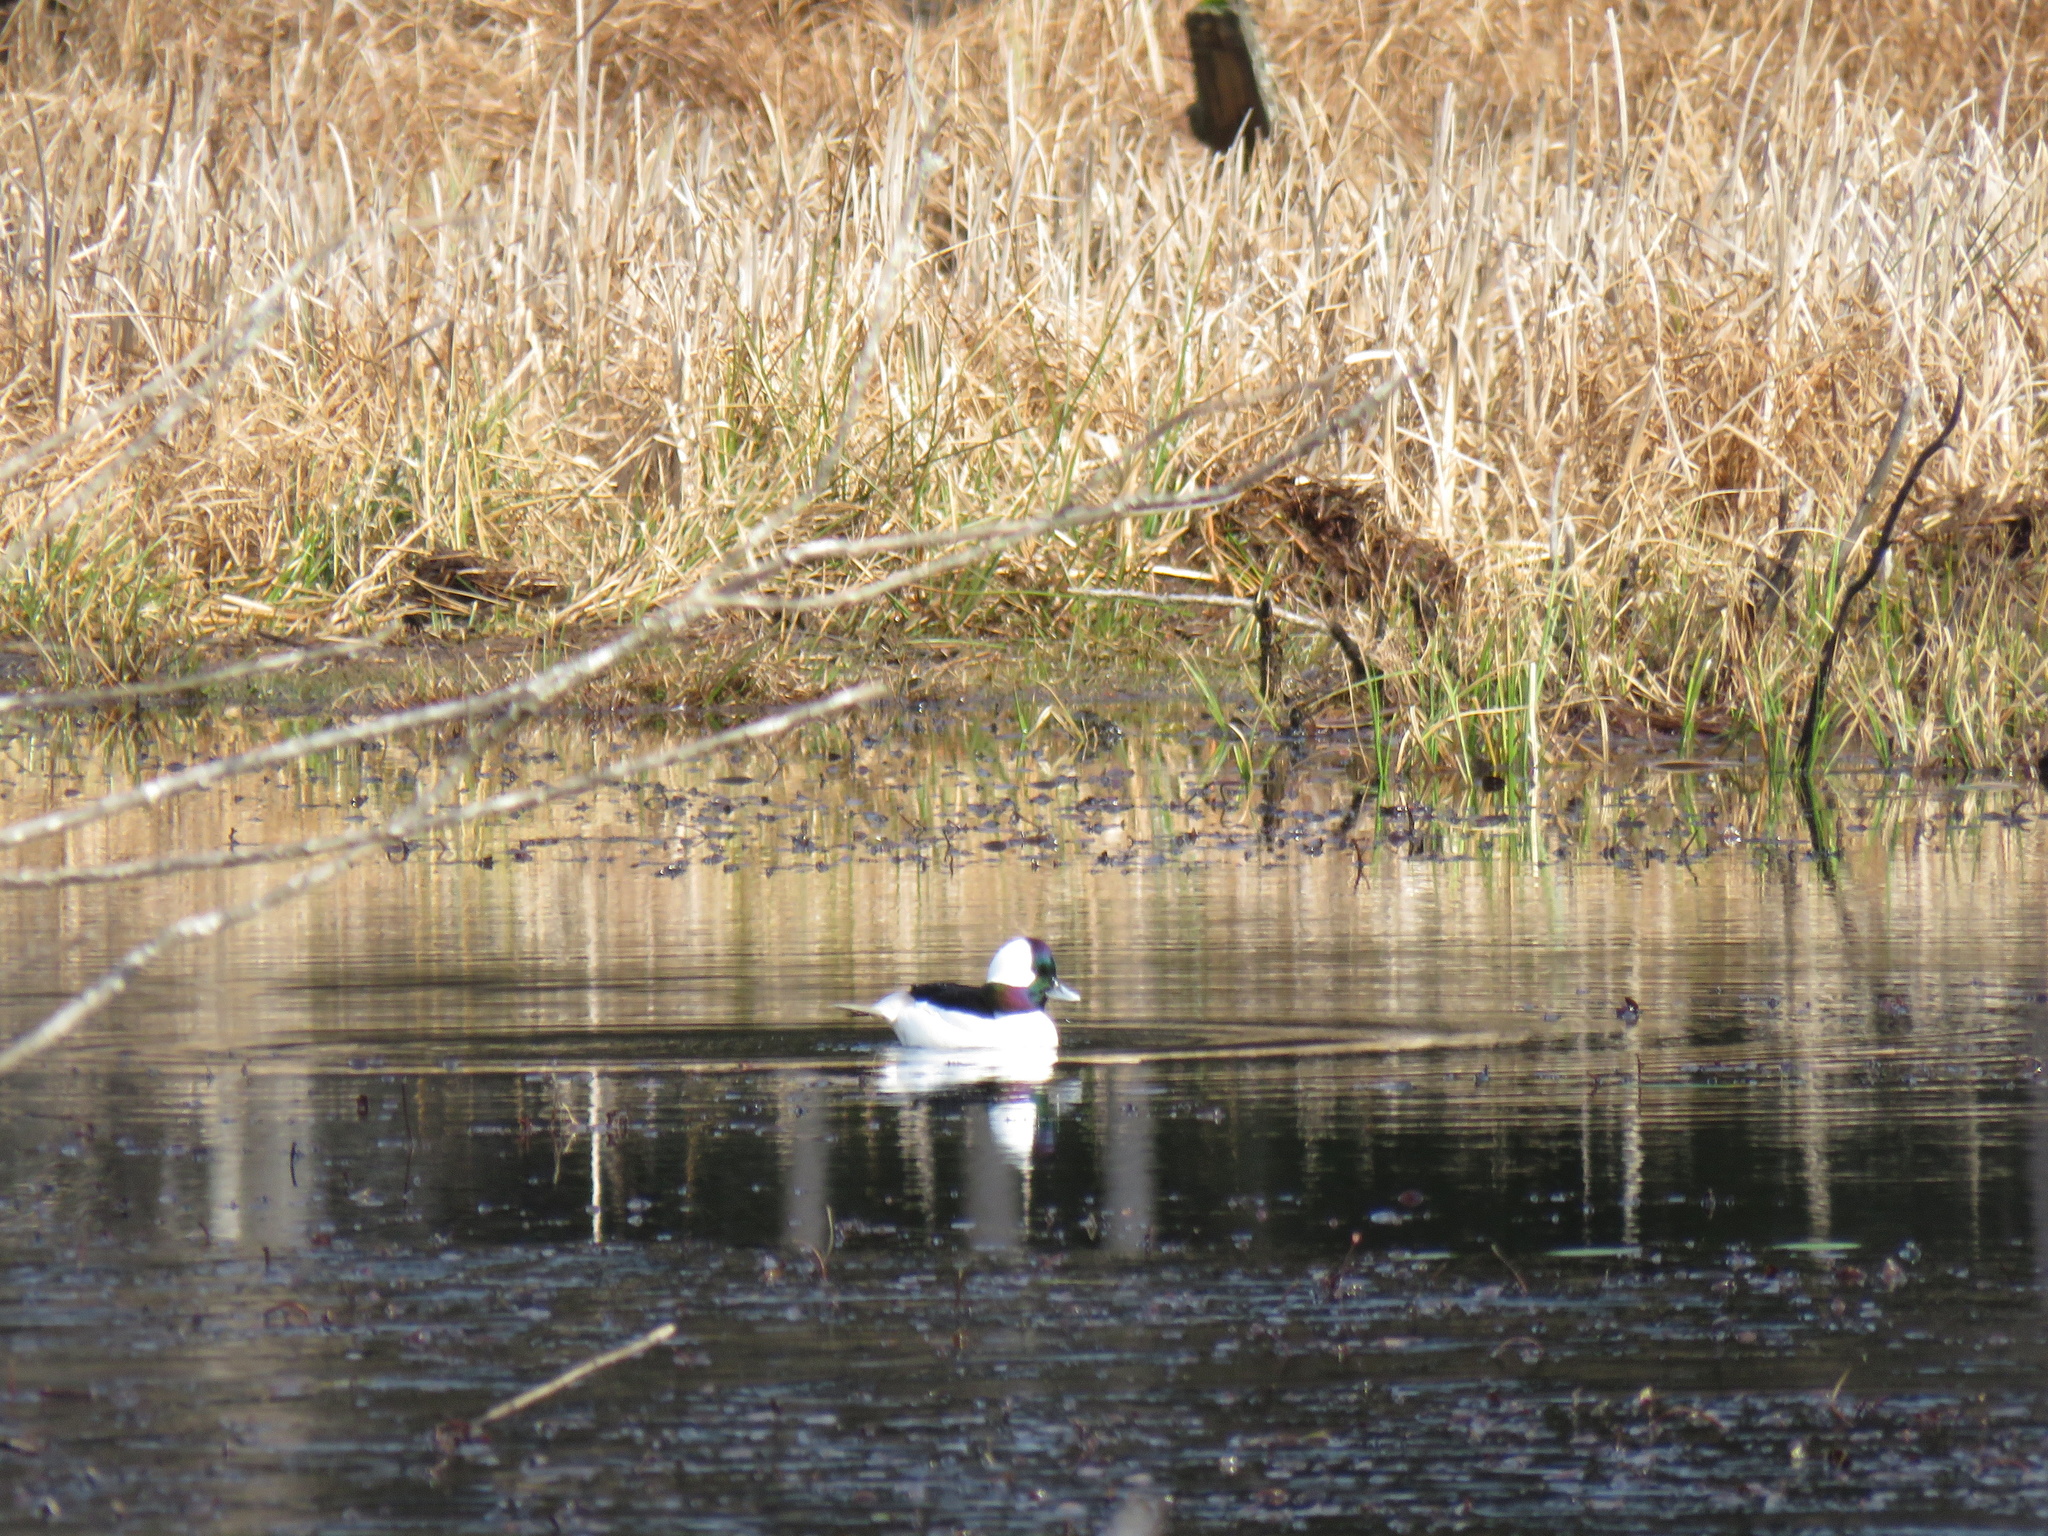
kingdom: Animalia
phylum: Chordata
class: Aves
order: Anseriformes
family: Anatidae
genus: Bucephala
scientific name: Bucephala albeola
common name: Bufflehead
